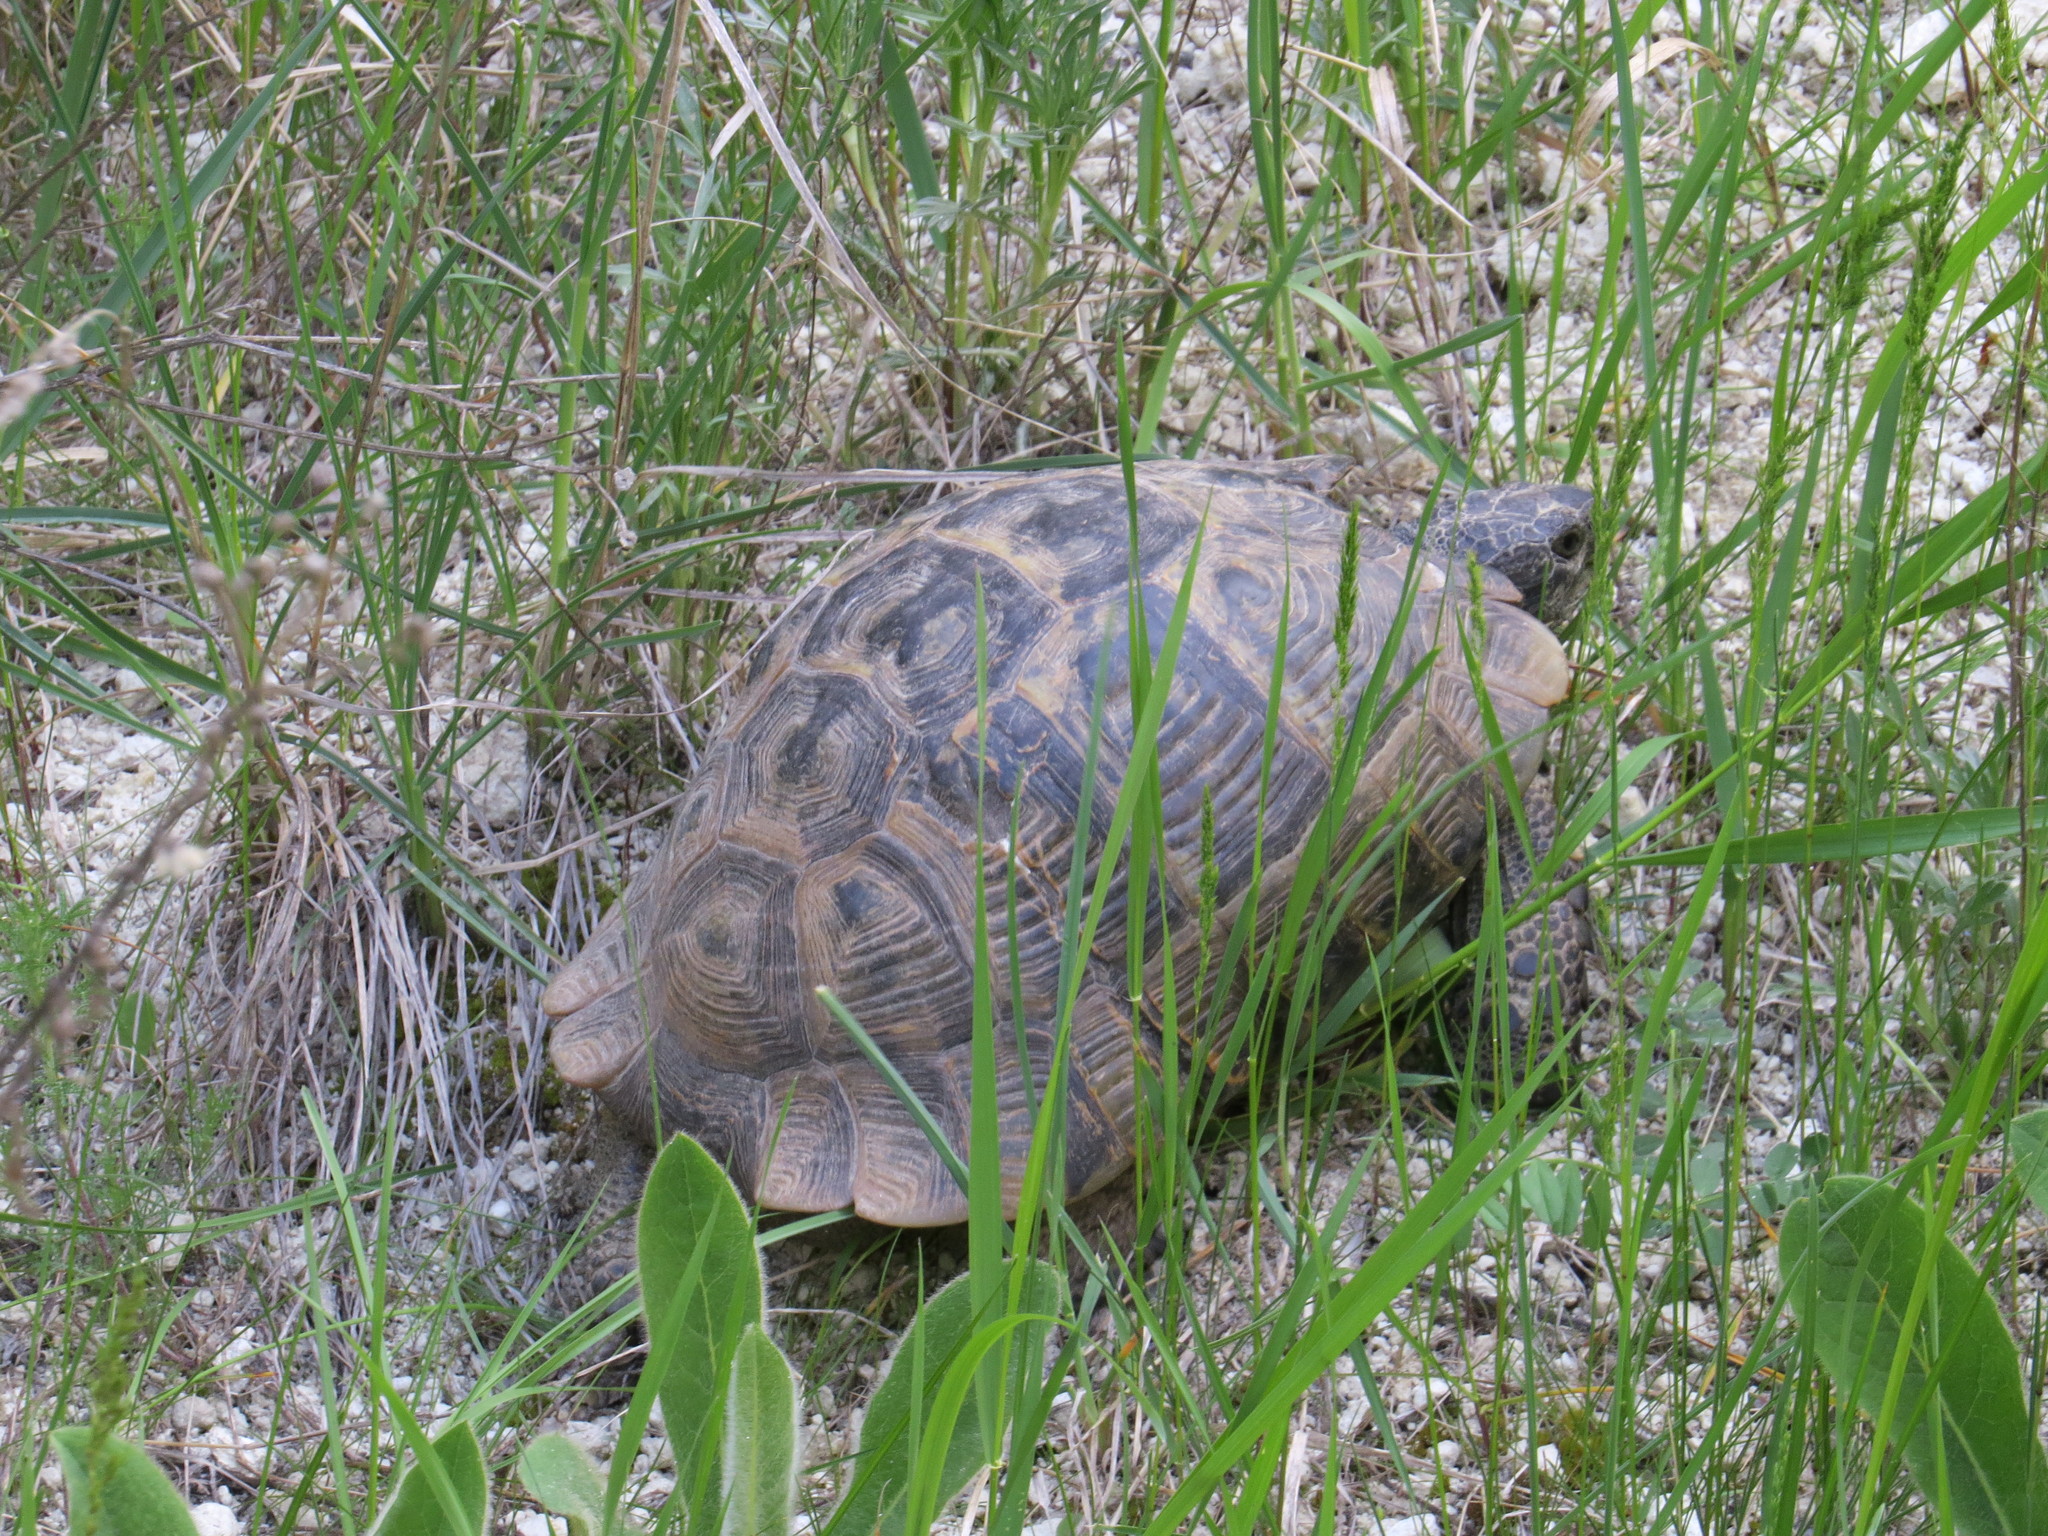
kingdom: Animalia
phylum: Chordata
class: Testudines
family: Testudinidae
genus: Testudo
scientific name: Testudo graeca
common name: Common tortoise
